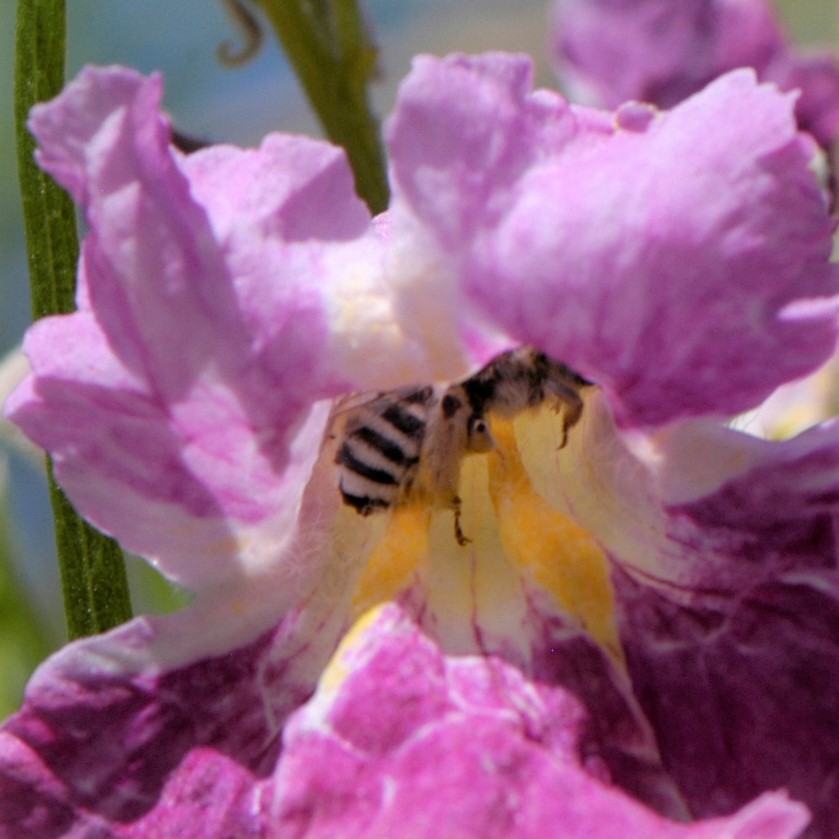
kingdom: Animalia
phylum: Arthropoda
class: Insecta
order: Hymenoptera
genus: Eumelissodes
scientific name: Eumelissodes
